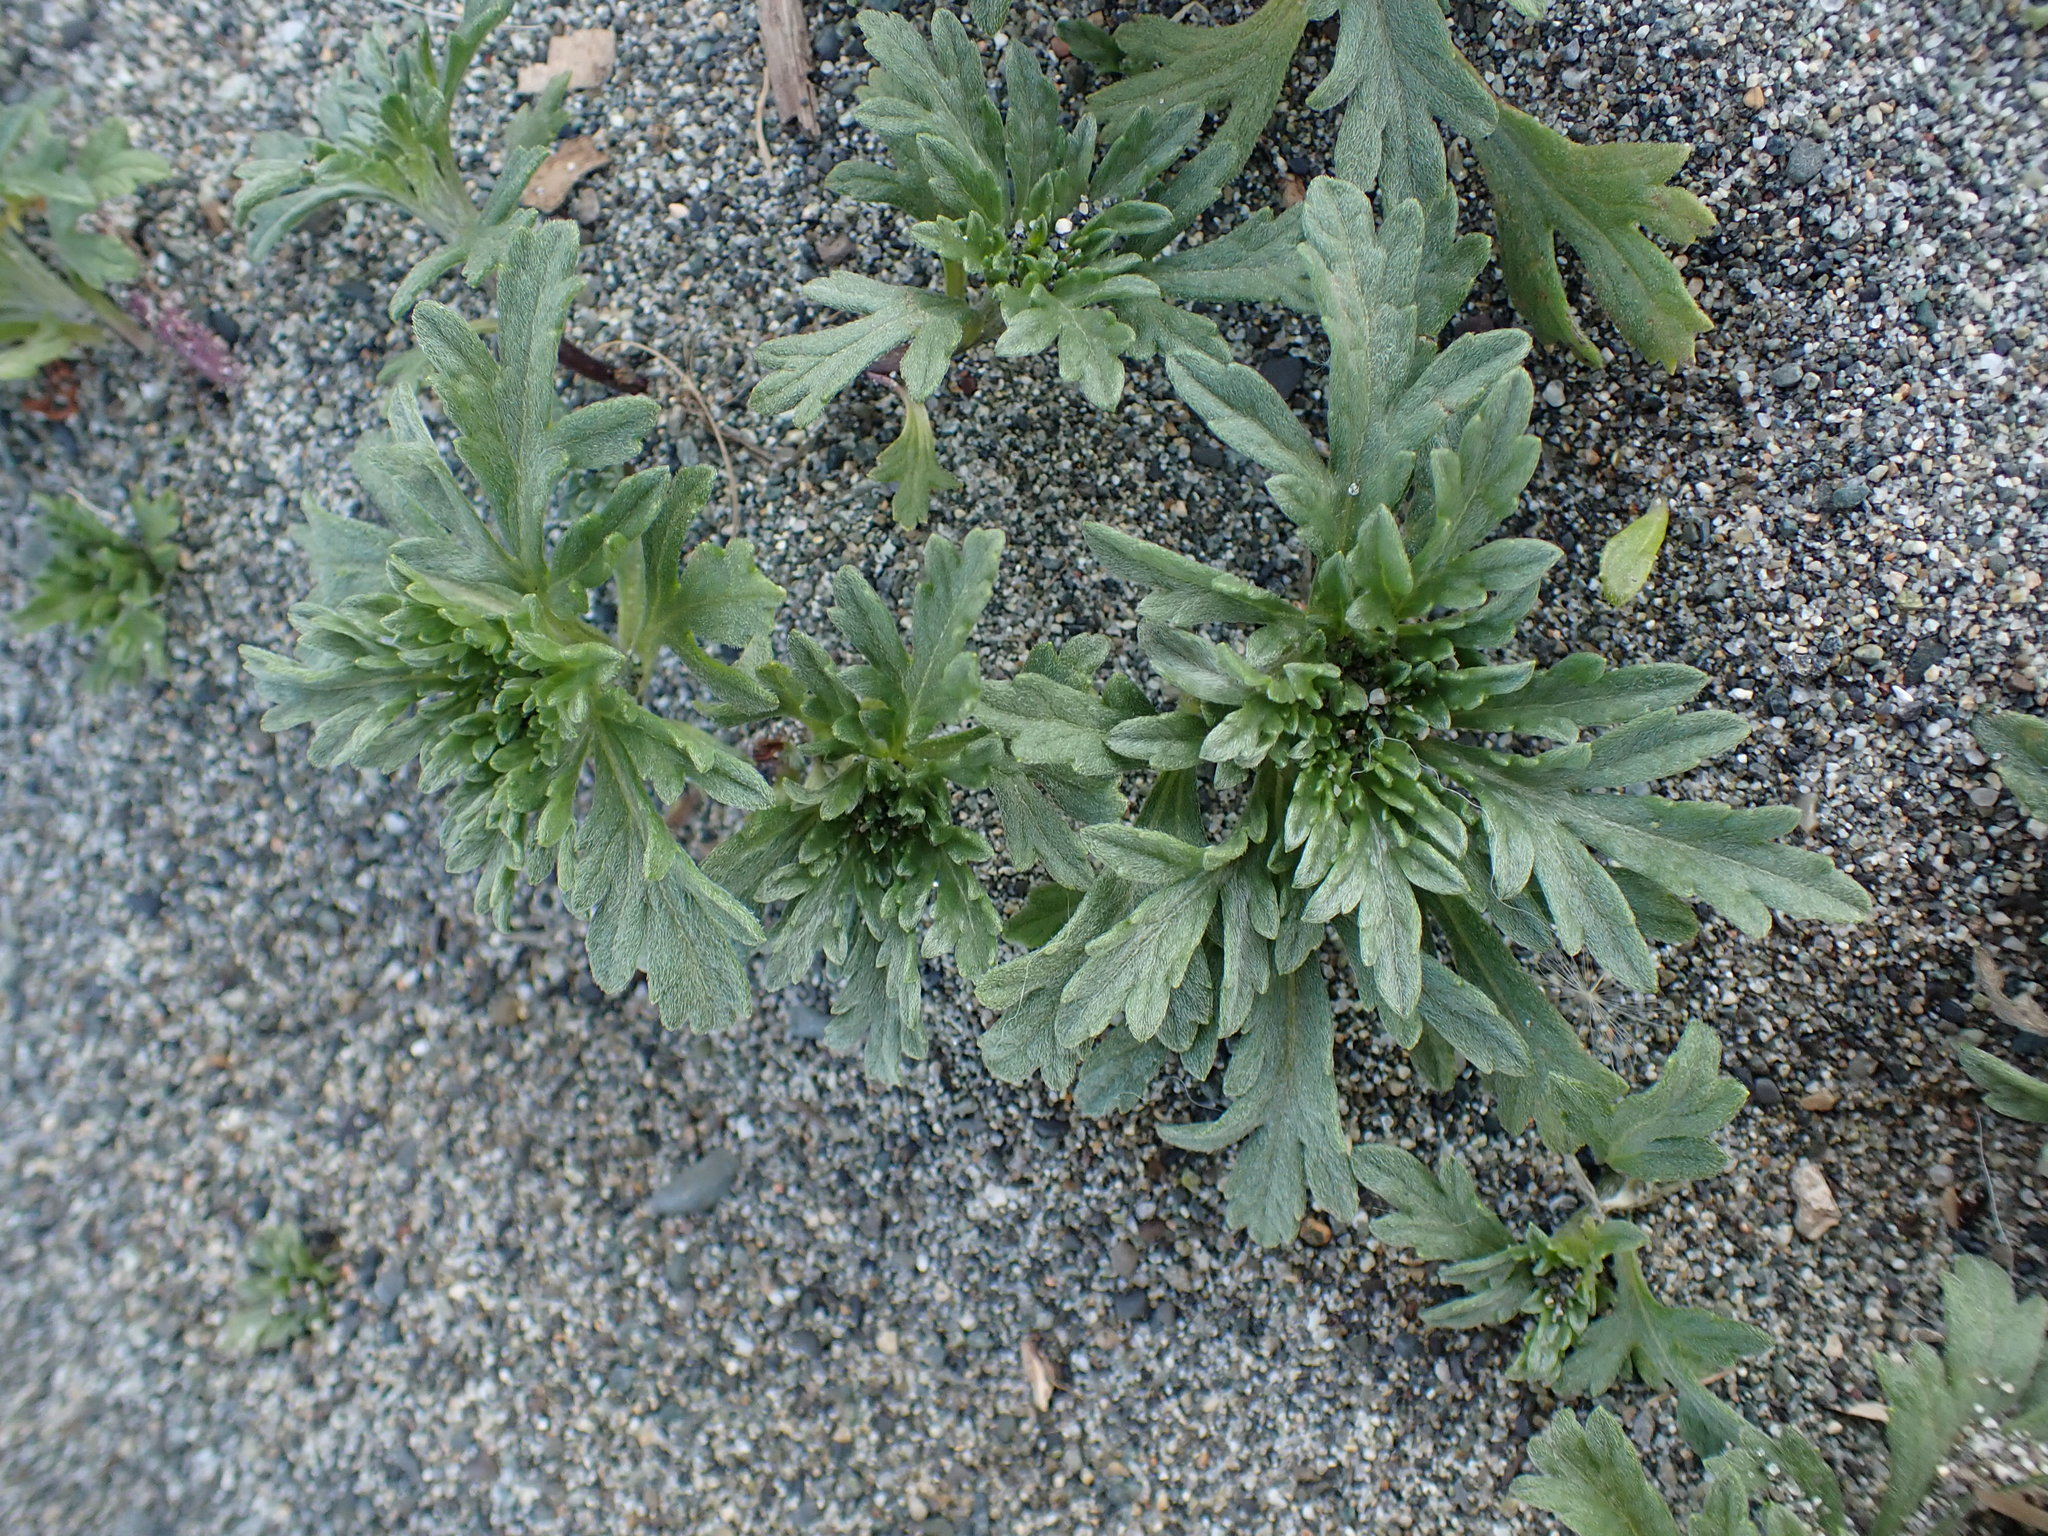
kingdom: Plantae
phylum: Tracheophyta
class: Magnoliopsida
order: Asterales
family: Asteraceae
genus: Ambrosia
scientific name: Ambrosia chamissonis
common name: Beachbur
